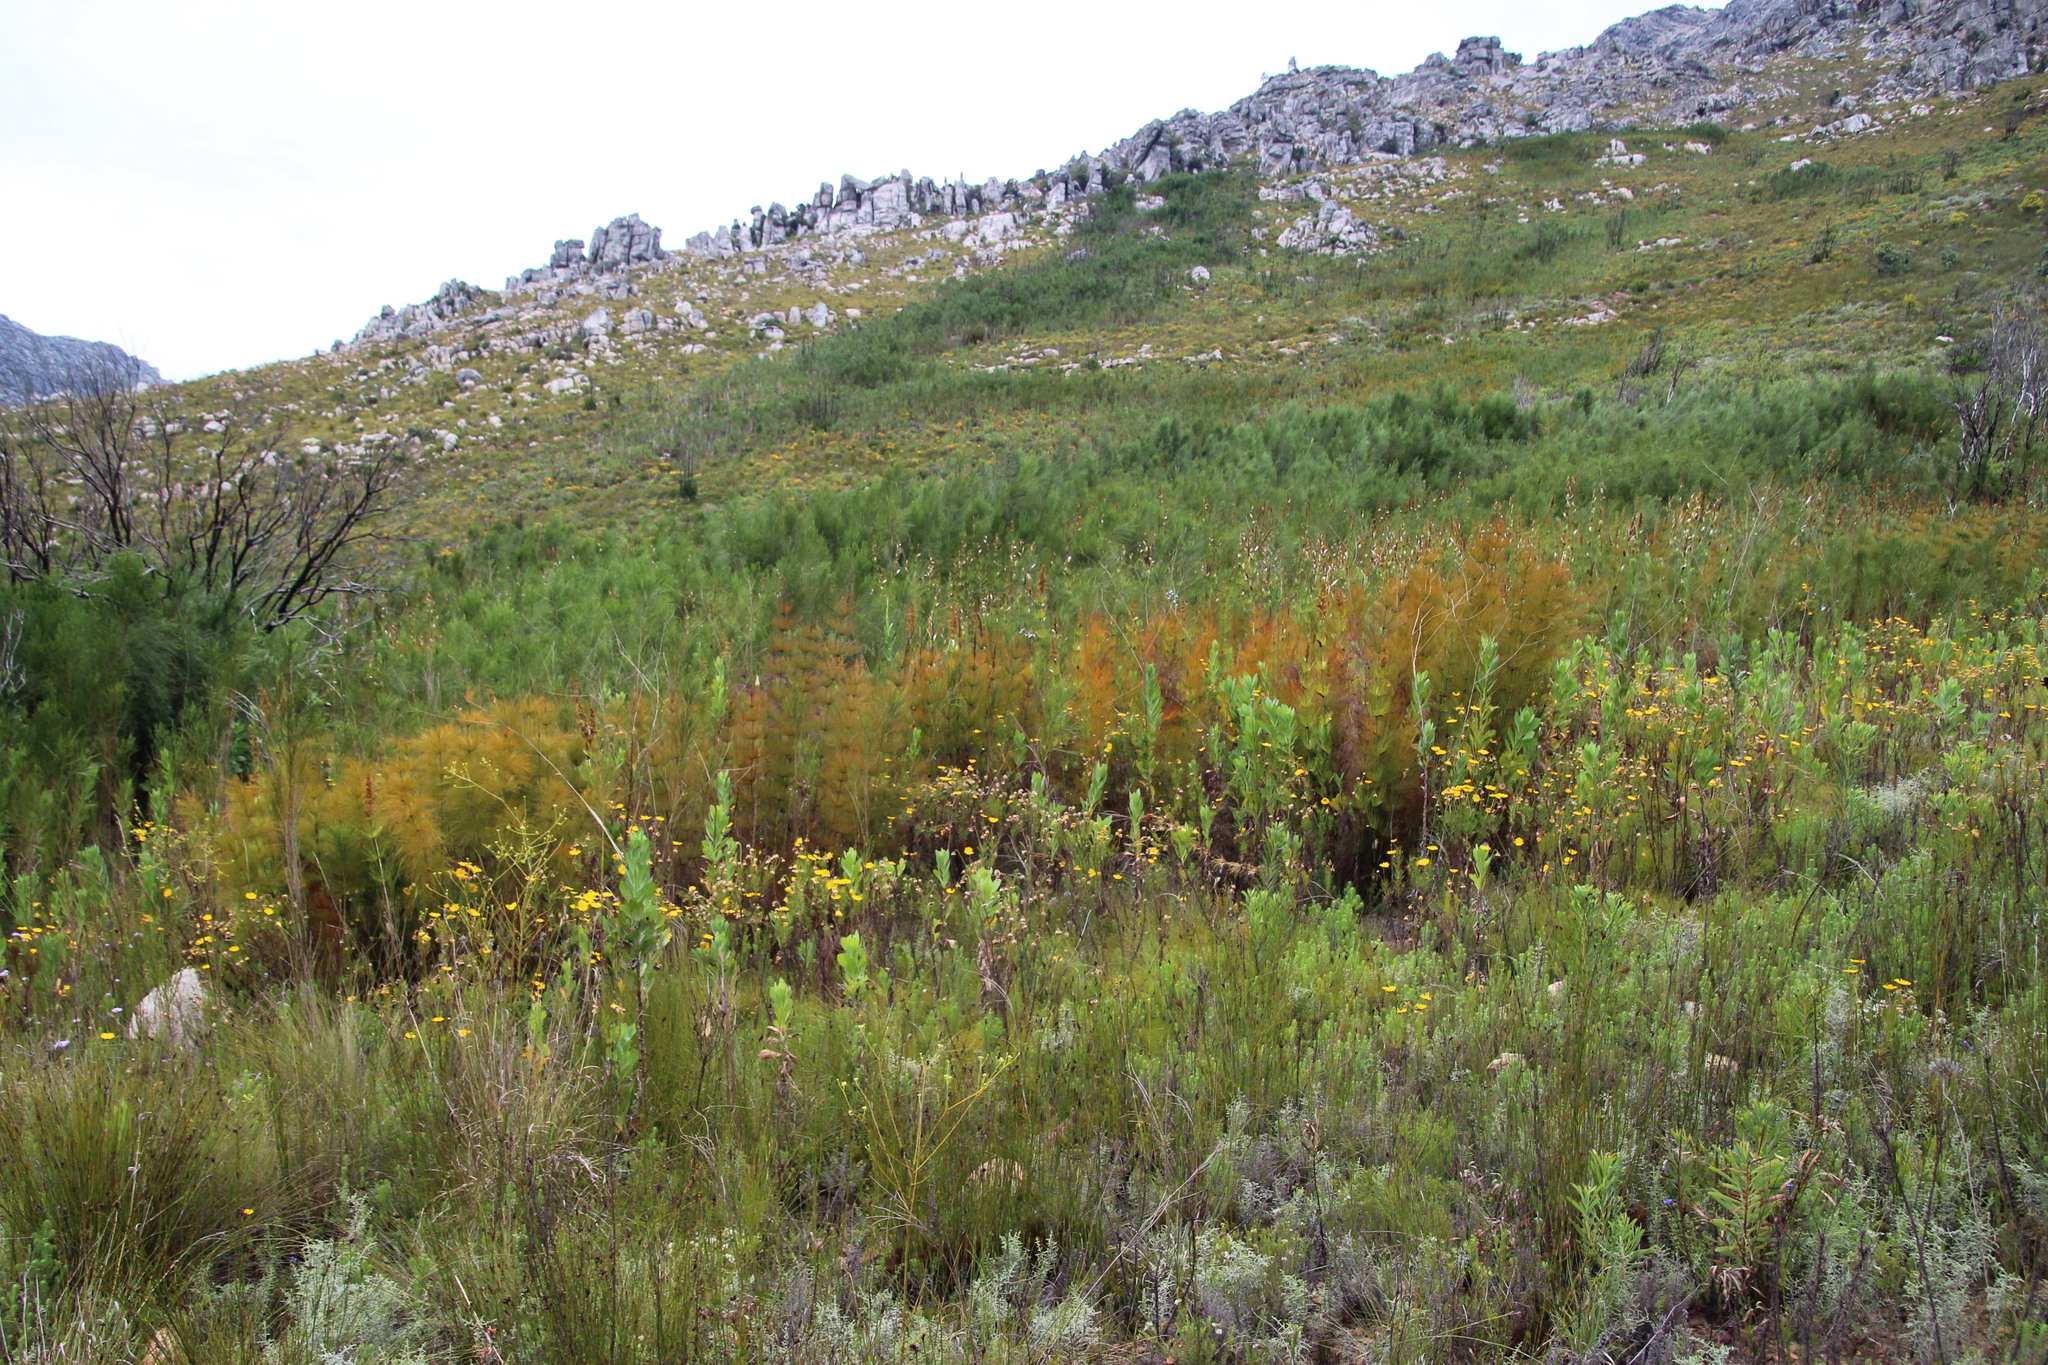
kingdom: Plantae
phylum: Tracheophyta
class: Liliopsida
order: Poales
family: Restionaceae
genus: Elegia
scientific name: Elegia capensis
